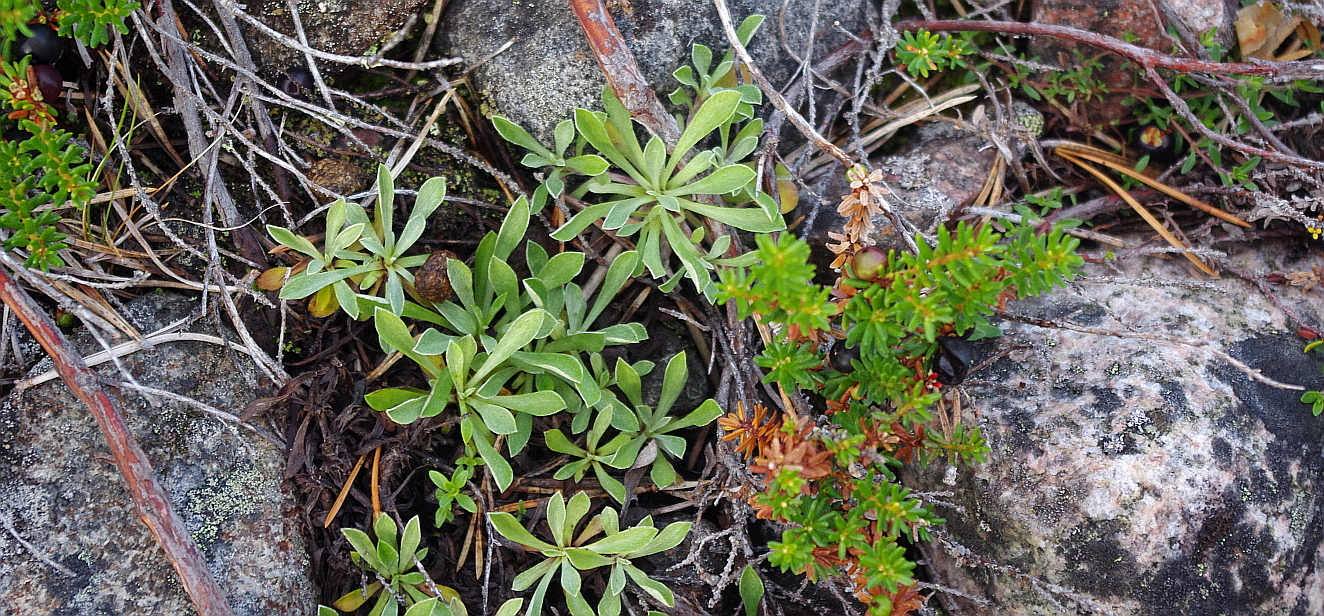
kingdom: Plantae
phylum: Tracheophyta
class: Magnoliopsida
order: Asterales
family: Asteraceae
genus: Antennaria
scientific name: Antennaria dioica
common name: Mountain everlasting
